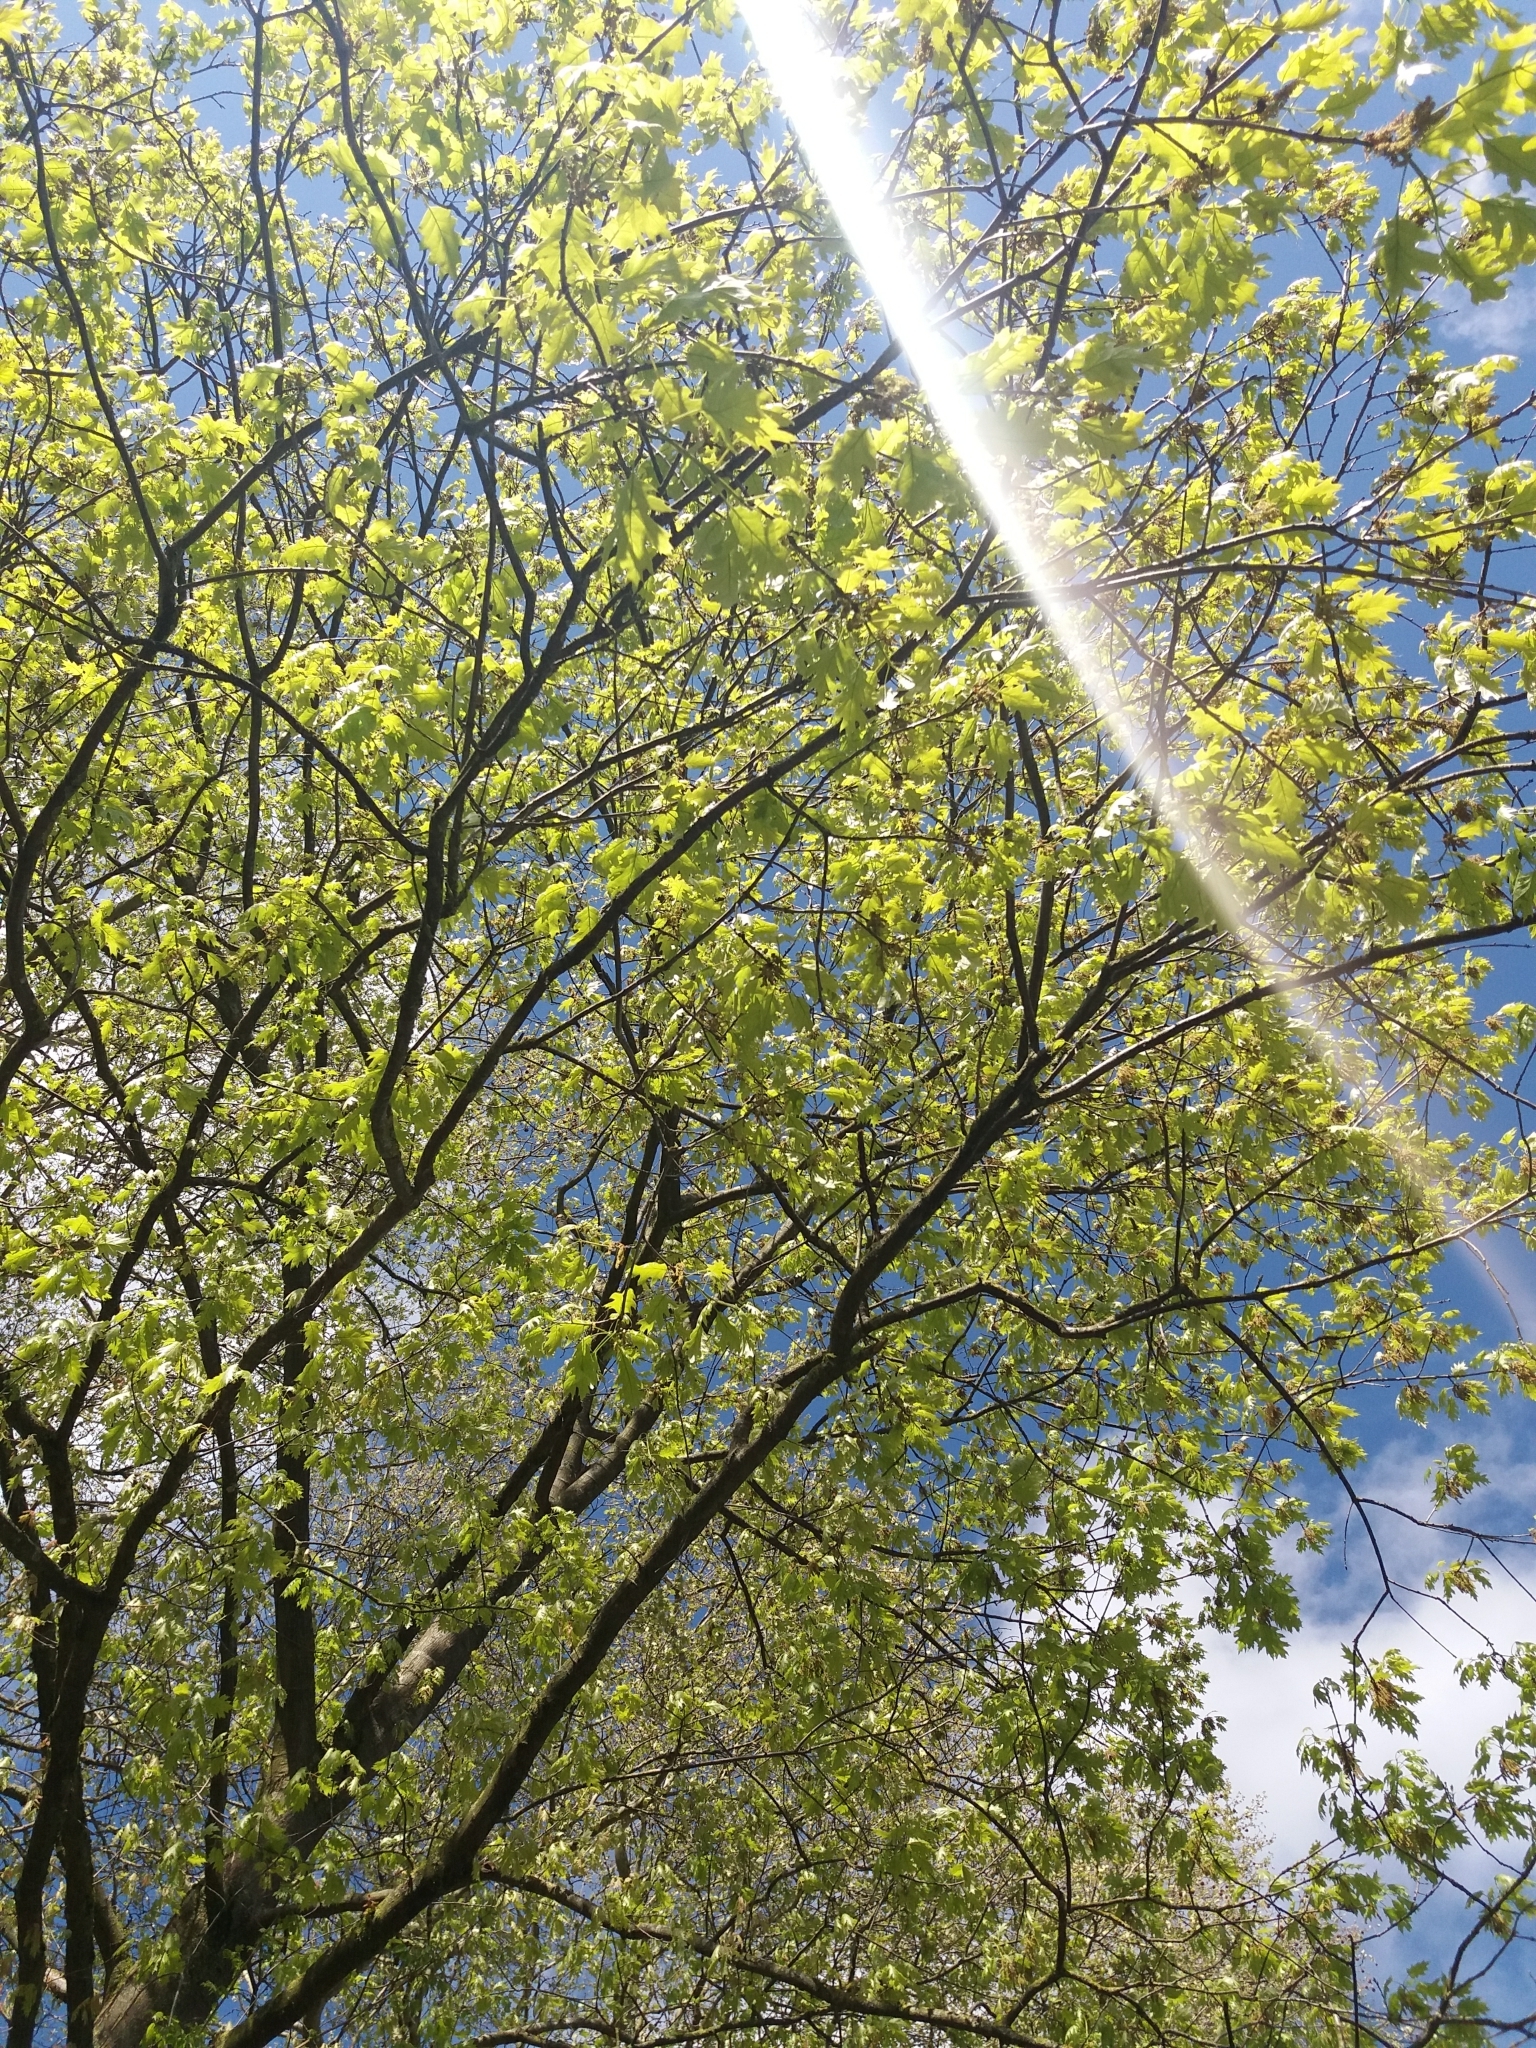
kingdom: Plantae
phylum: Tracheophyta
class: Magnoliopsida
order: Fagales
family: Fagaceae
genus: Quercus
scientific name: Quercus rubra
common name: Red oak
